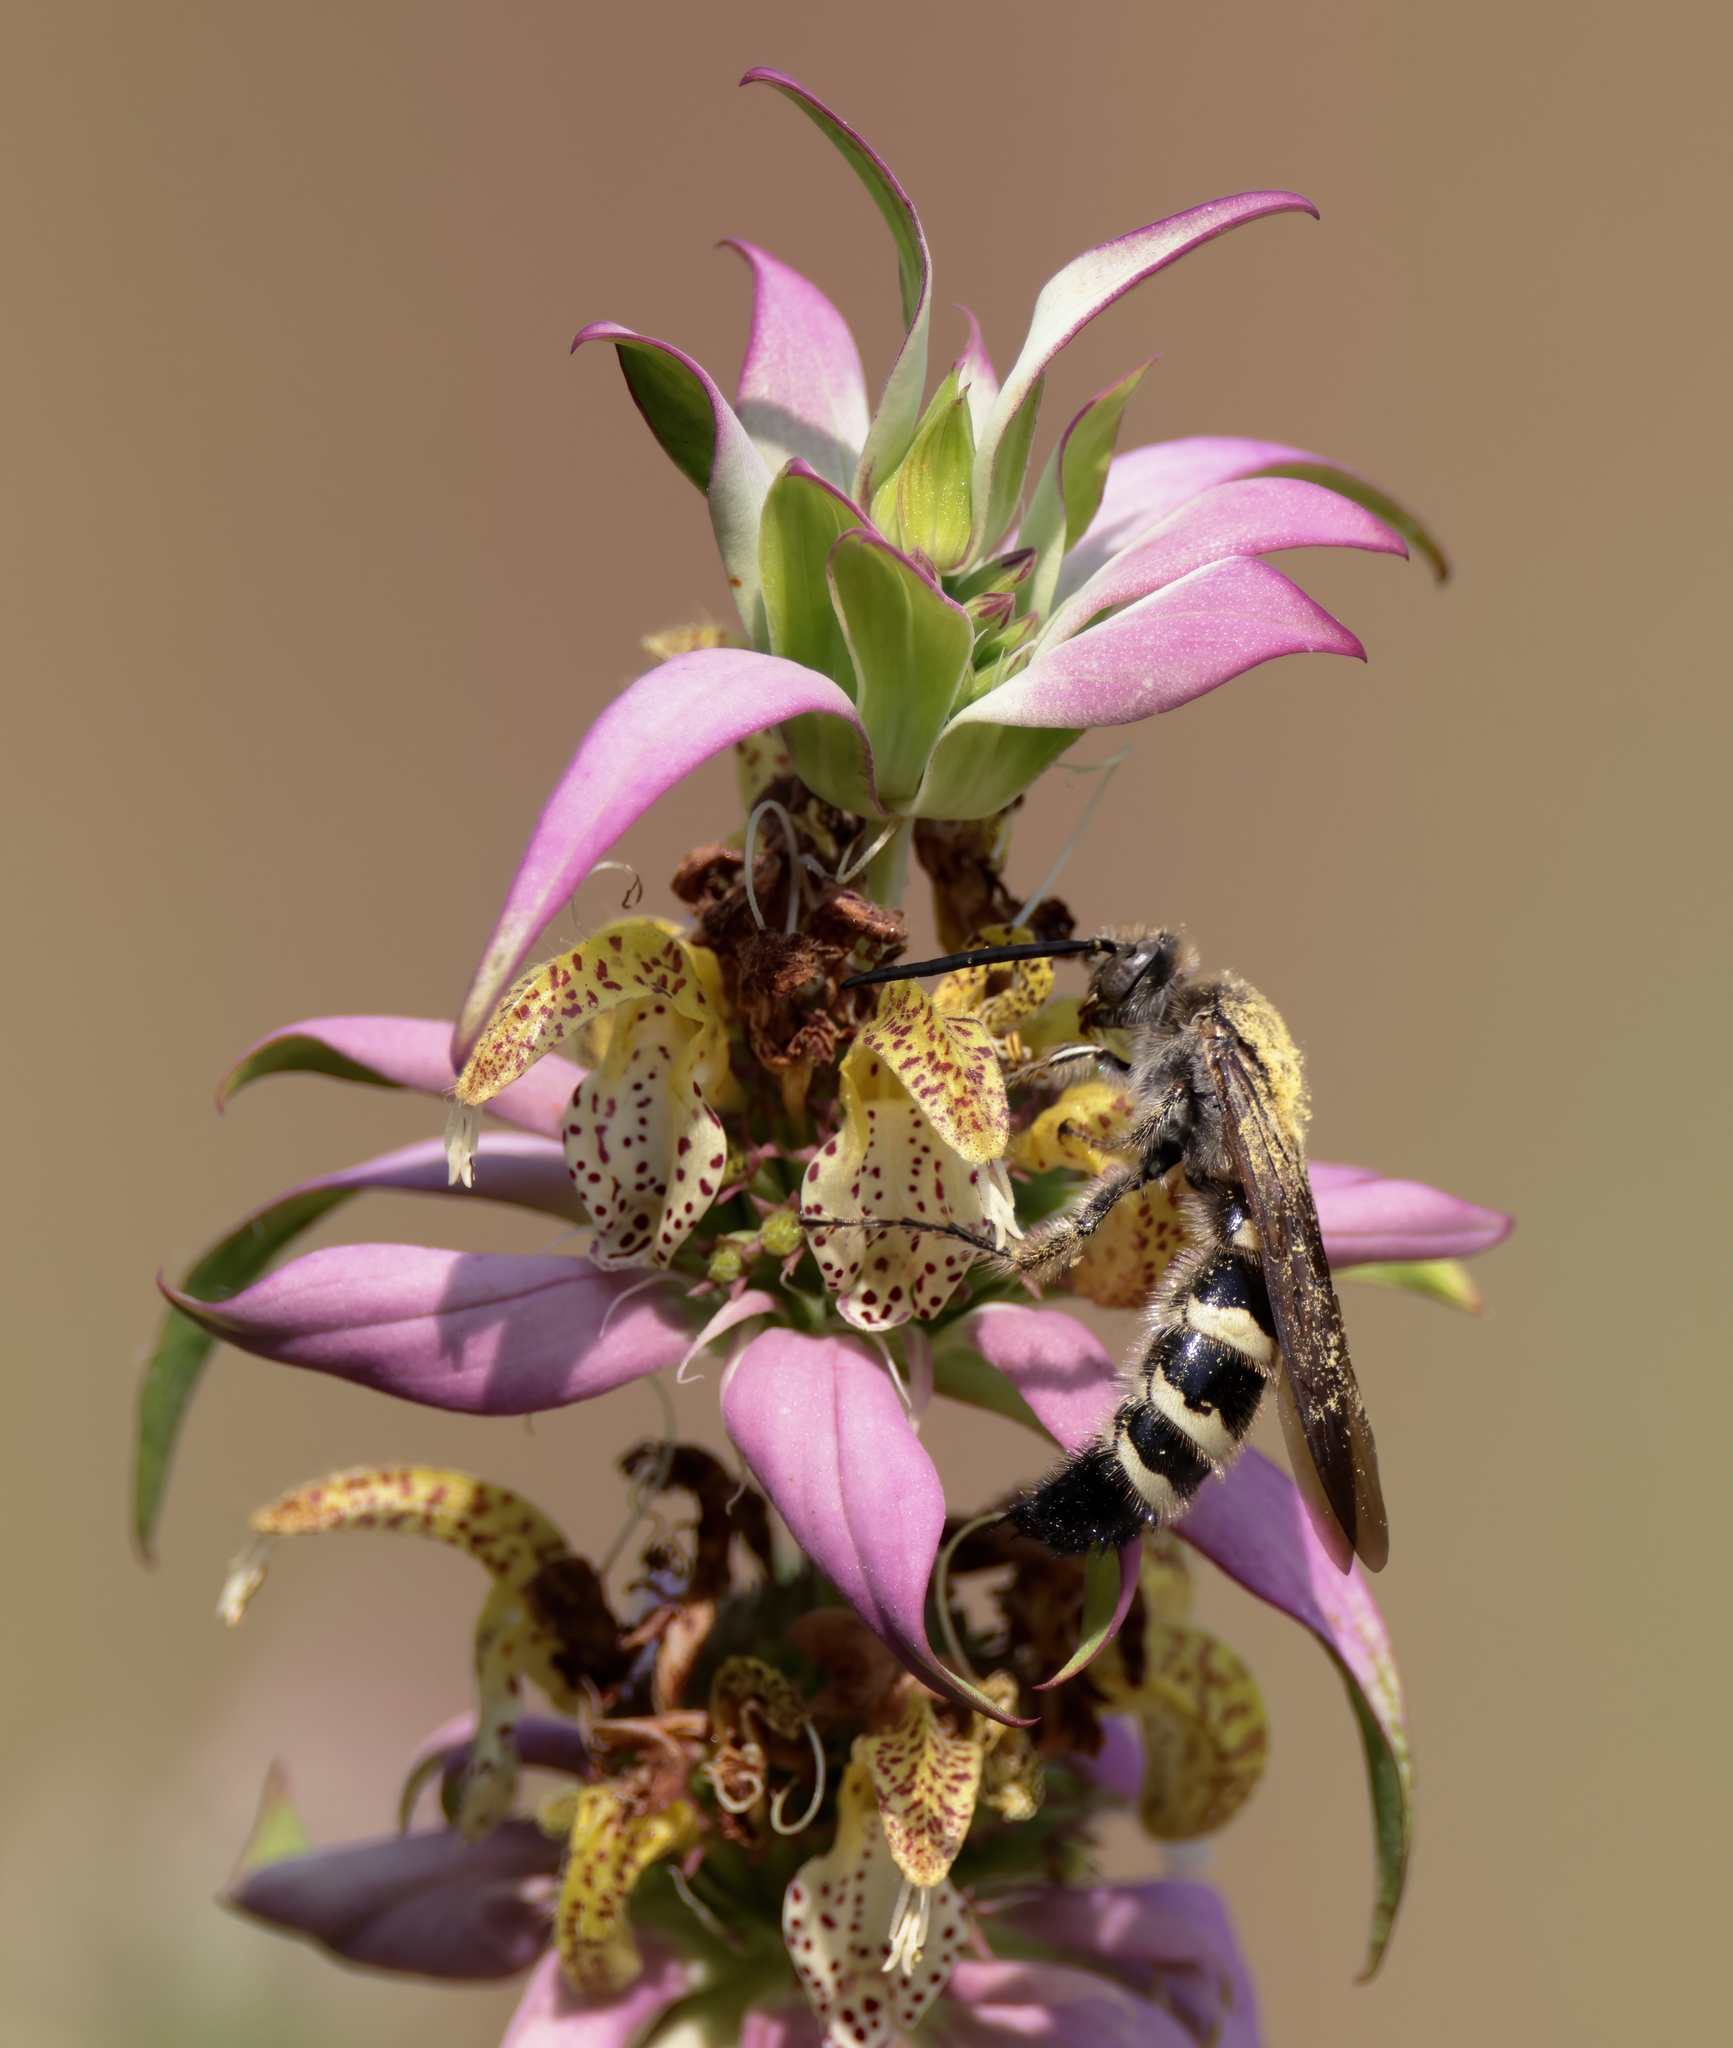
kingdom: Animalia
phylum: Arthropoda
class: Insecta
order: Hymenoptera
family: Scoliidae
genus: Dielis
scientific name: Dielis
